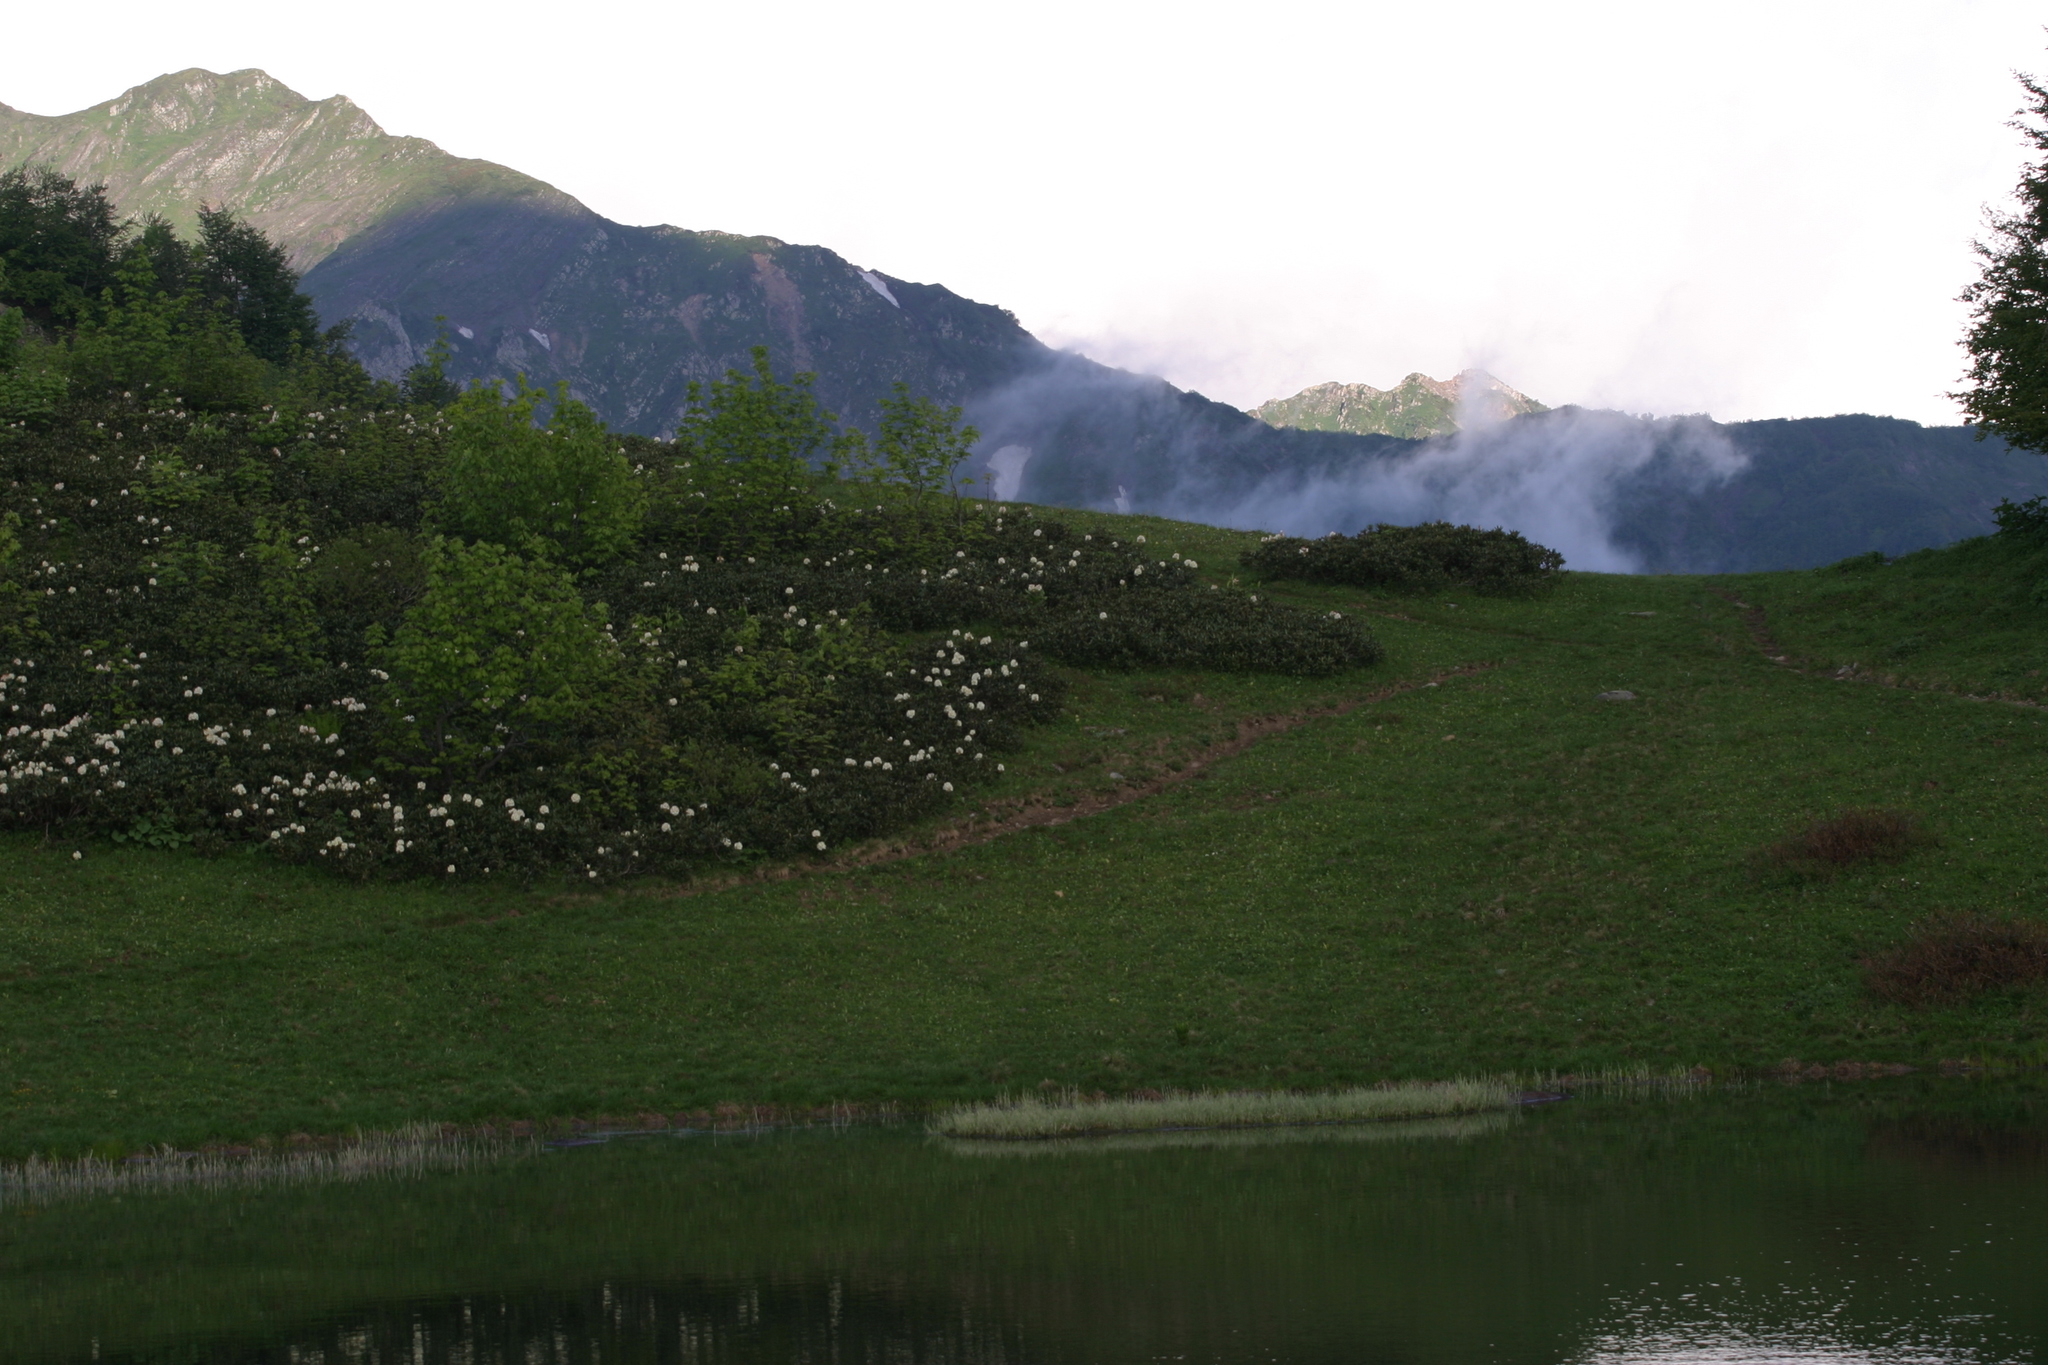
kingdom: Plantae
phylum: Tracheophyta
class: Magnoliopsida
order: Ericales
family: Ericaceae
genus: Rhododendron
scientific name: Rhododendron caucasicum
